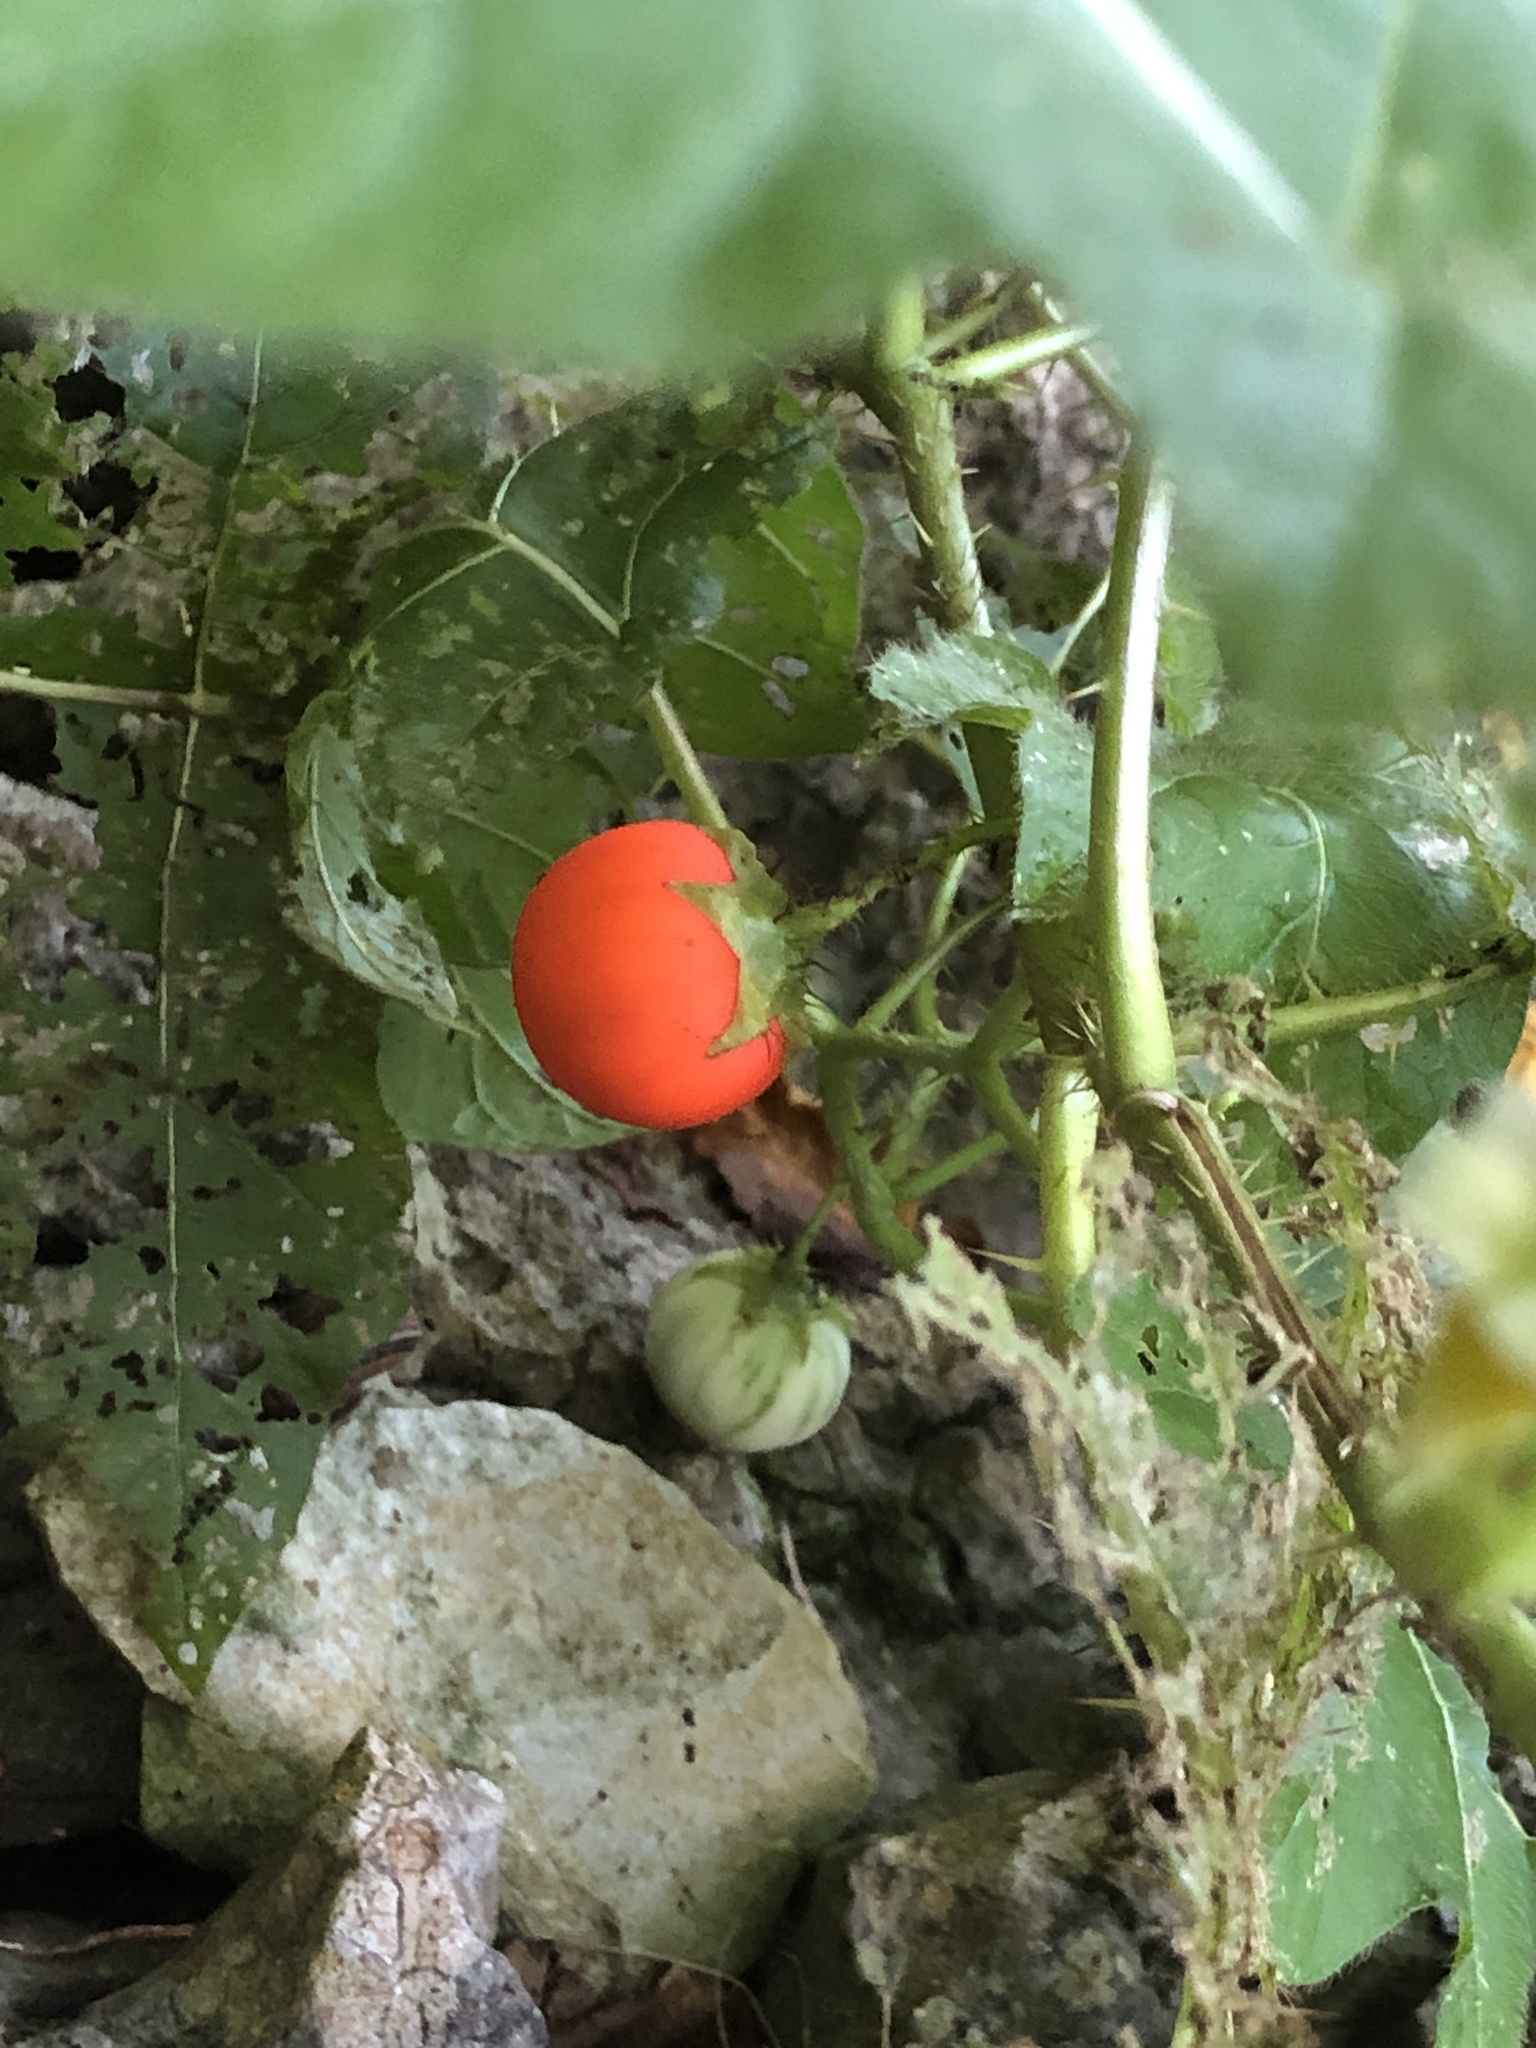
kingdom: Plantae
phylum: Tracheophyta
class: Magnoliopsida
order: Solanales
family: Solanaceae
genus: Solanum
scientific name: Solanum capsicoides
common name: Cockroach berry
